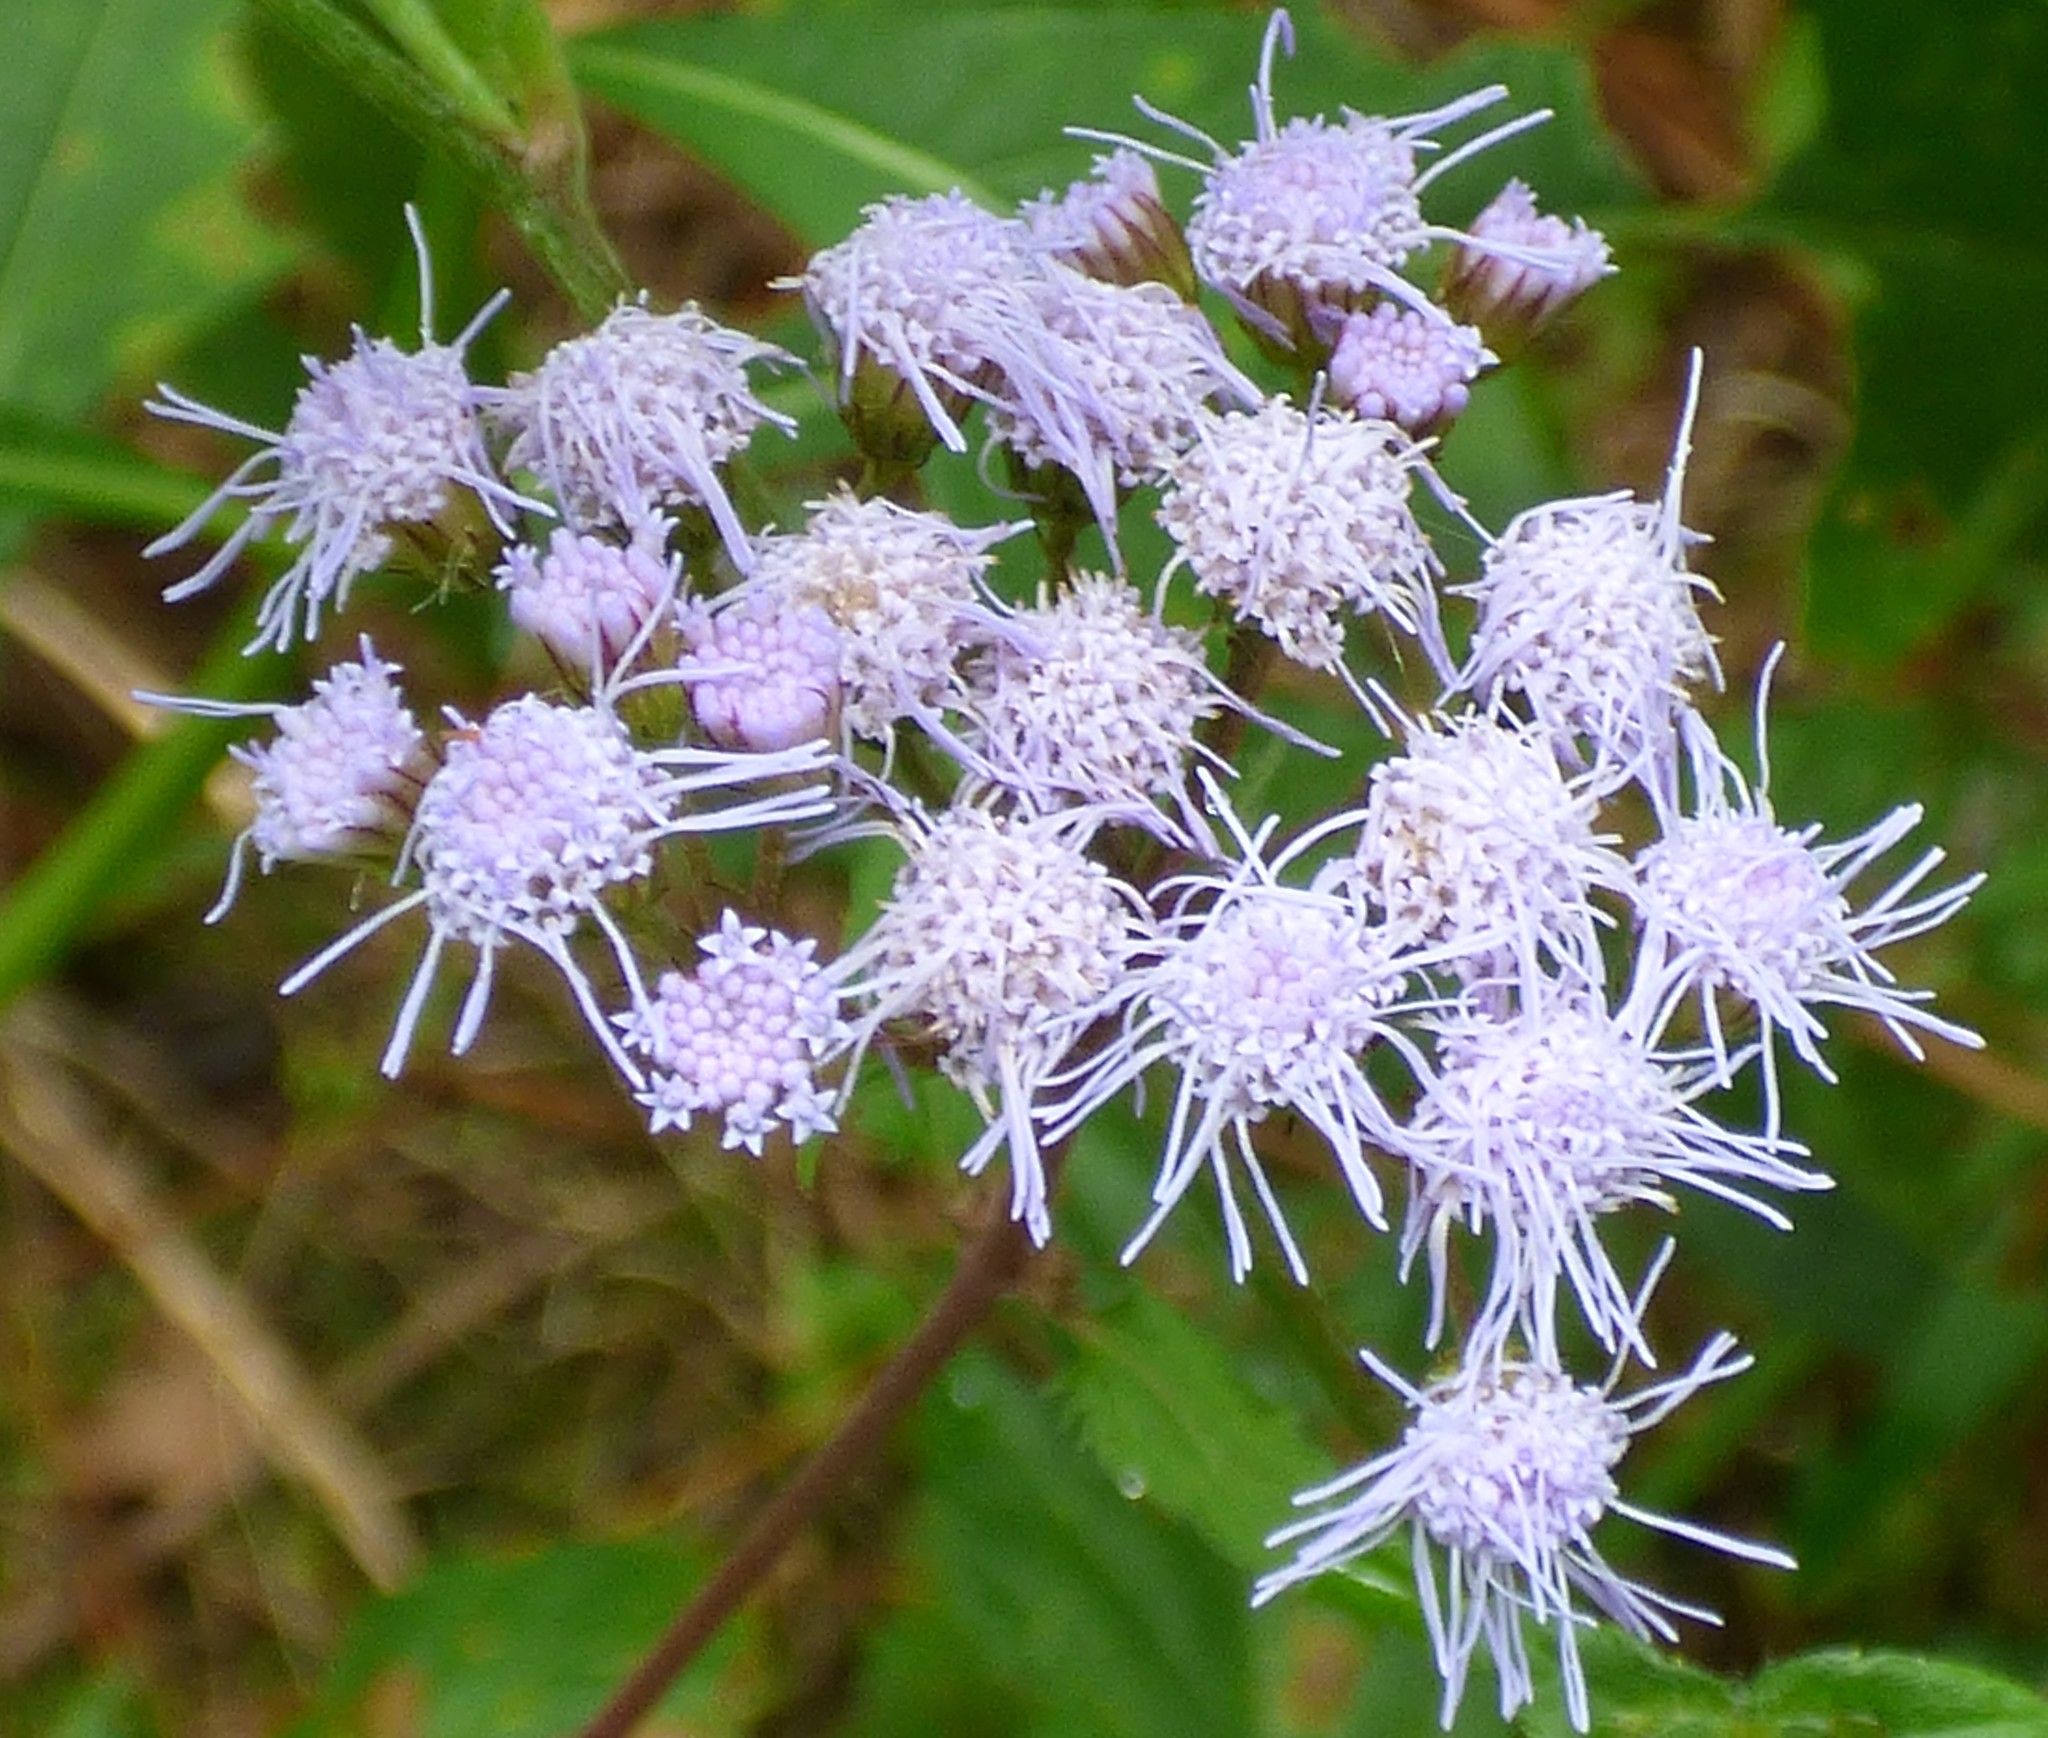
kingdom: Plantae
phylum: Tracheophyta
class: Magnoliopsida
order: Asterales
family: Asteraceae
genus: Conoclinium
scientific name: Conoclinium coelestinum
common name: Blue mistflower
